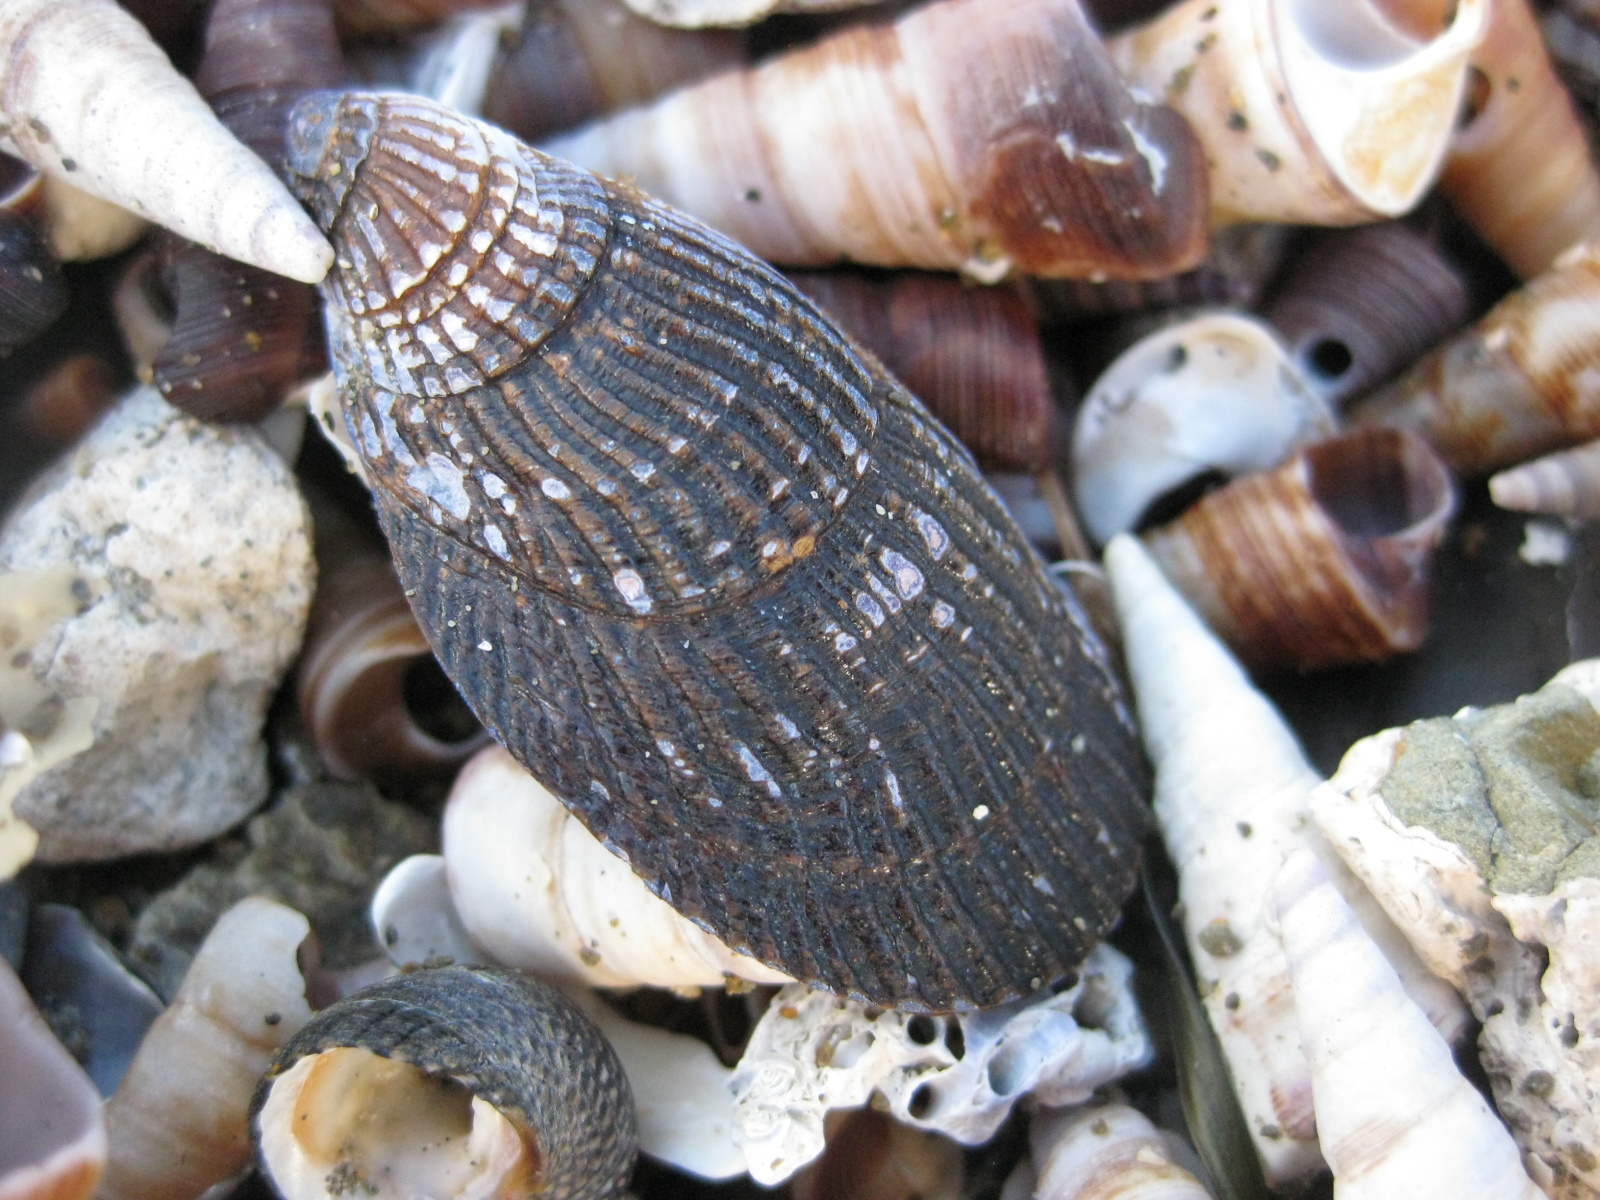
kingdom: Animalia
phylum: Mollusca
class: Bivalvia
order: Mytilida
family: Mytilidae
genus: Aulacomya
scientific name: Aulacomya maoriana
